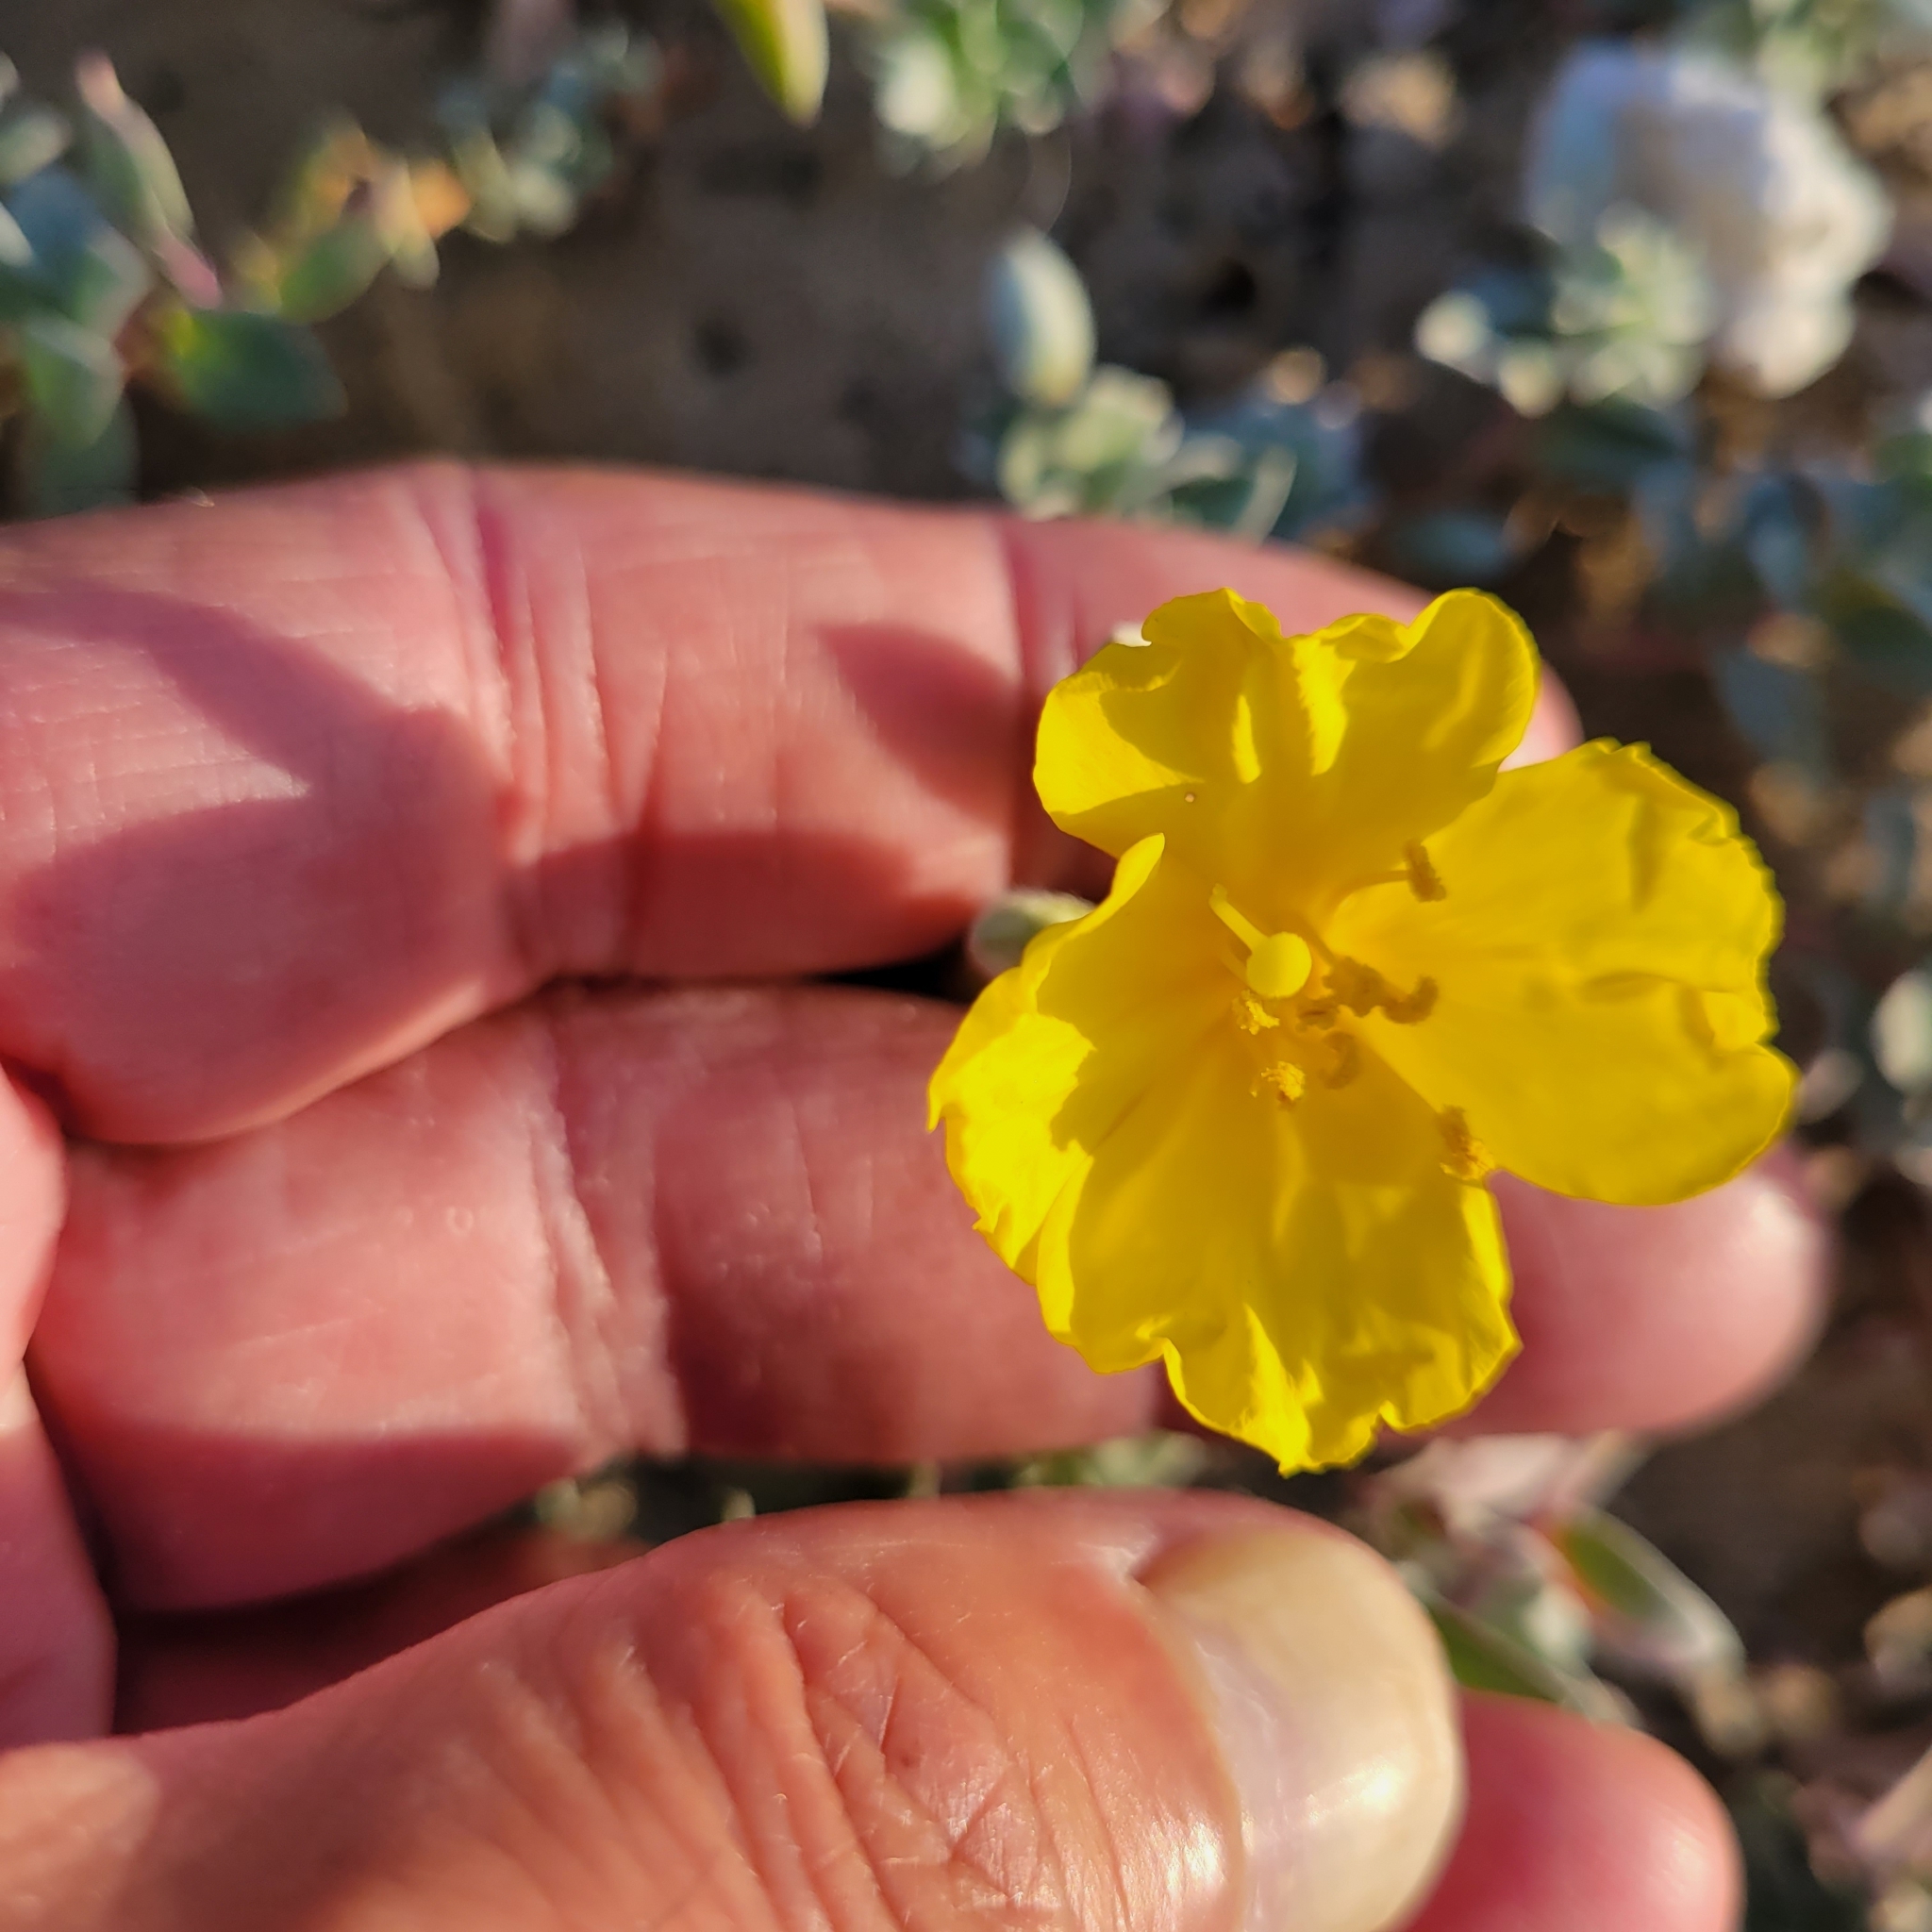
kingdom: Plantae
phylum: Tracheophyta
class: Magnoliopsida
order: Myrtales
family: Onagraceae
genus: Camissoniopsis
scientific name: Camissoniopsis cheiranthifolia
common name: Beach suncup
